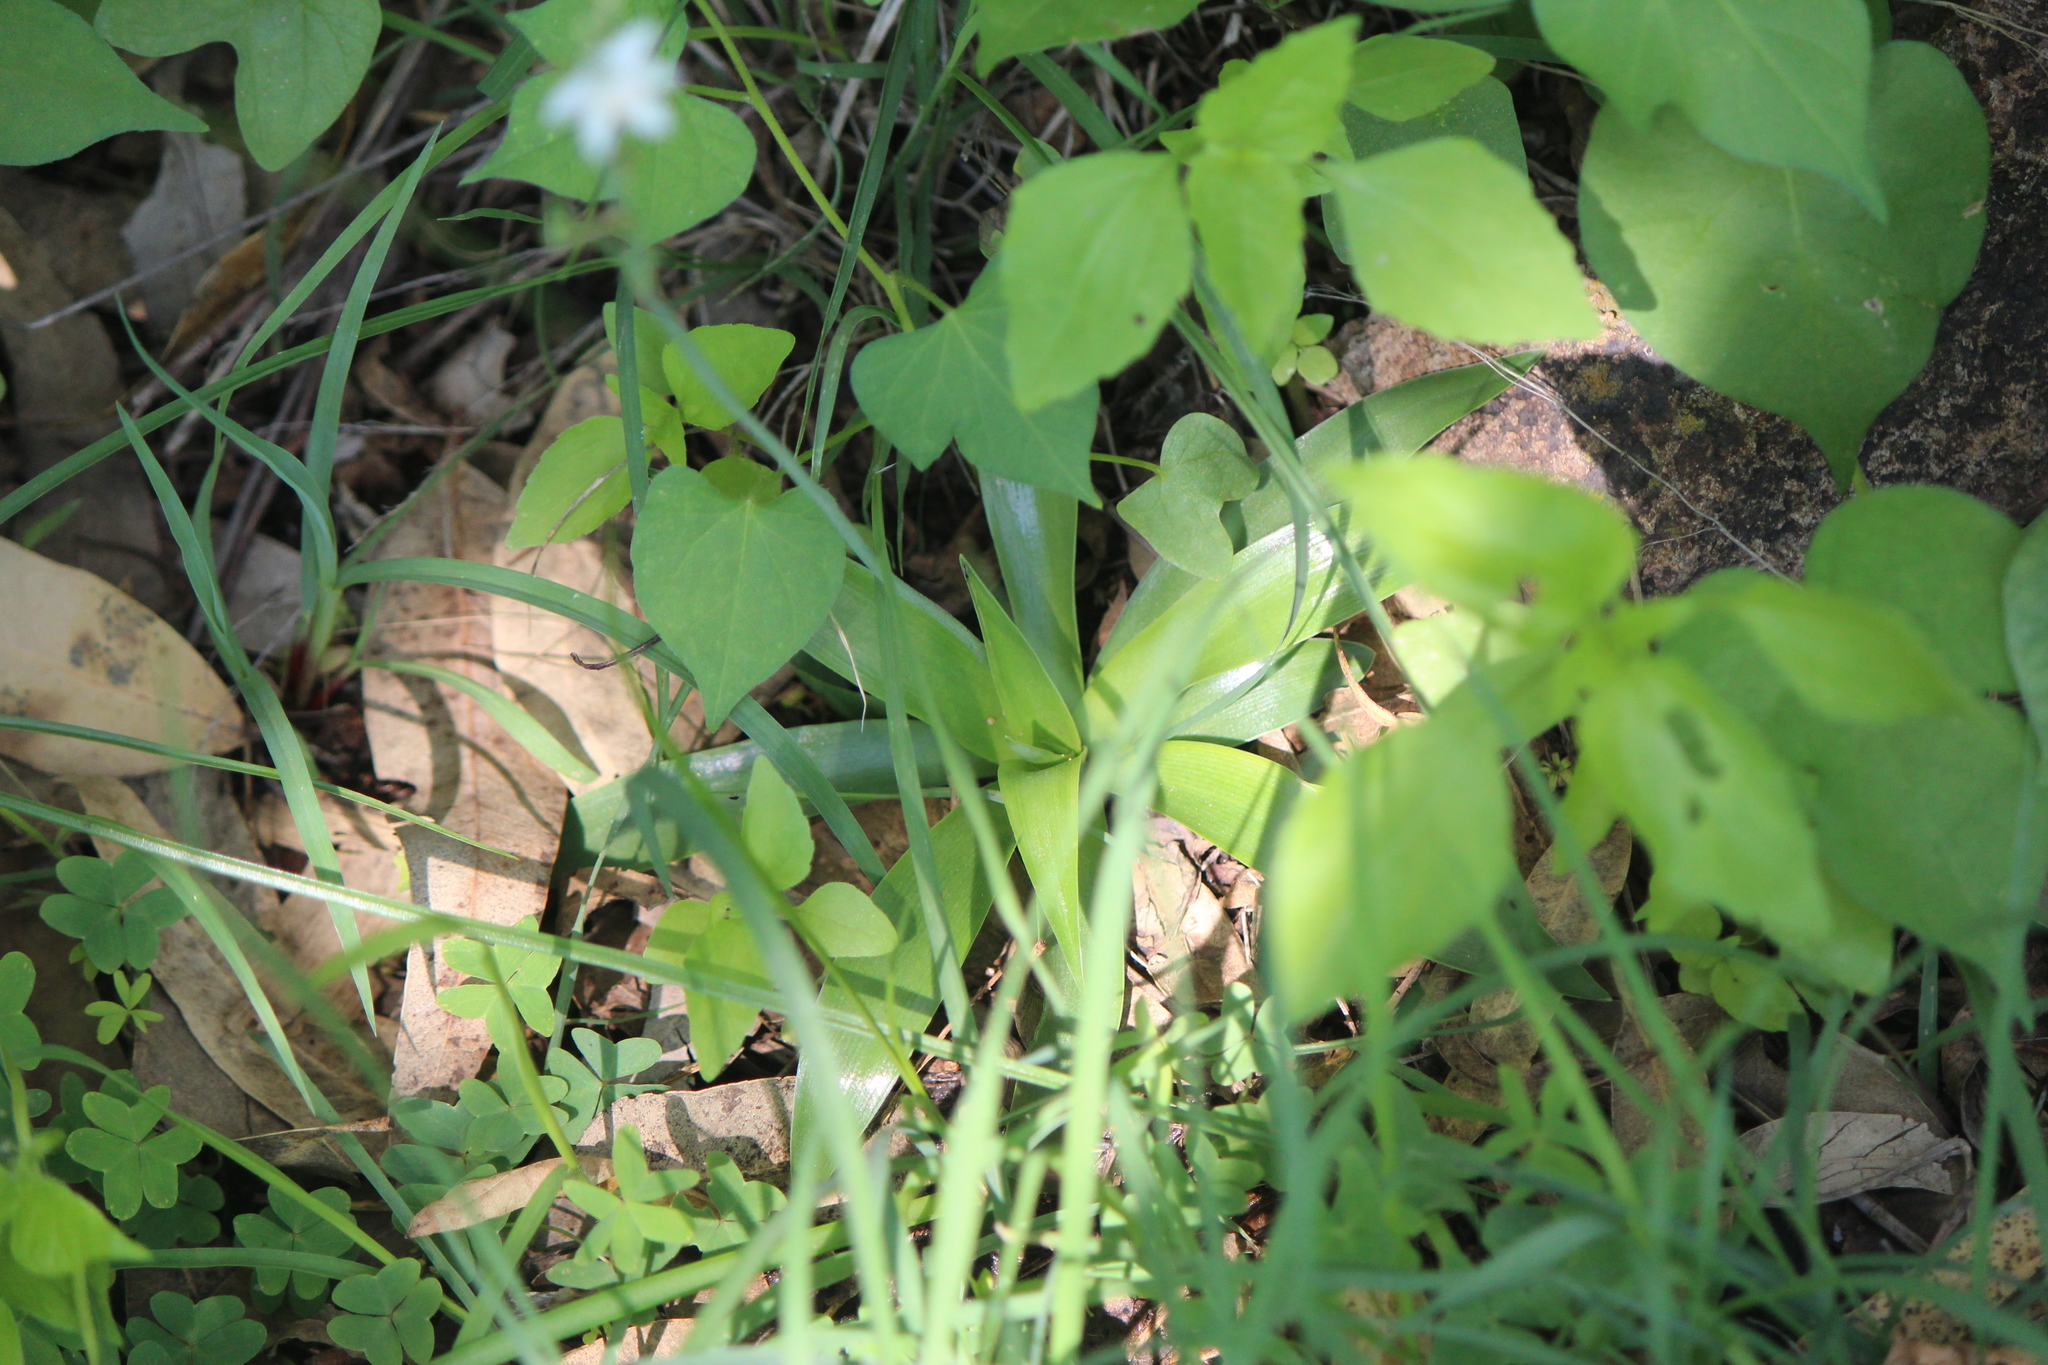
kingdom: Plantae
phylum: Tracheophyta
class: Liliopsida
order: Asparagales
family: Asparagaceae
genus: Echeandia
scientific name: Echeandia nana
